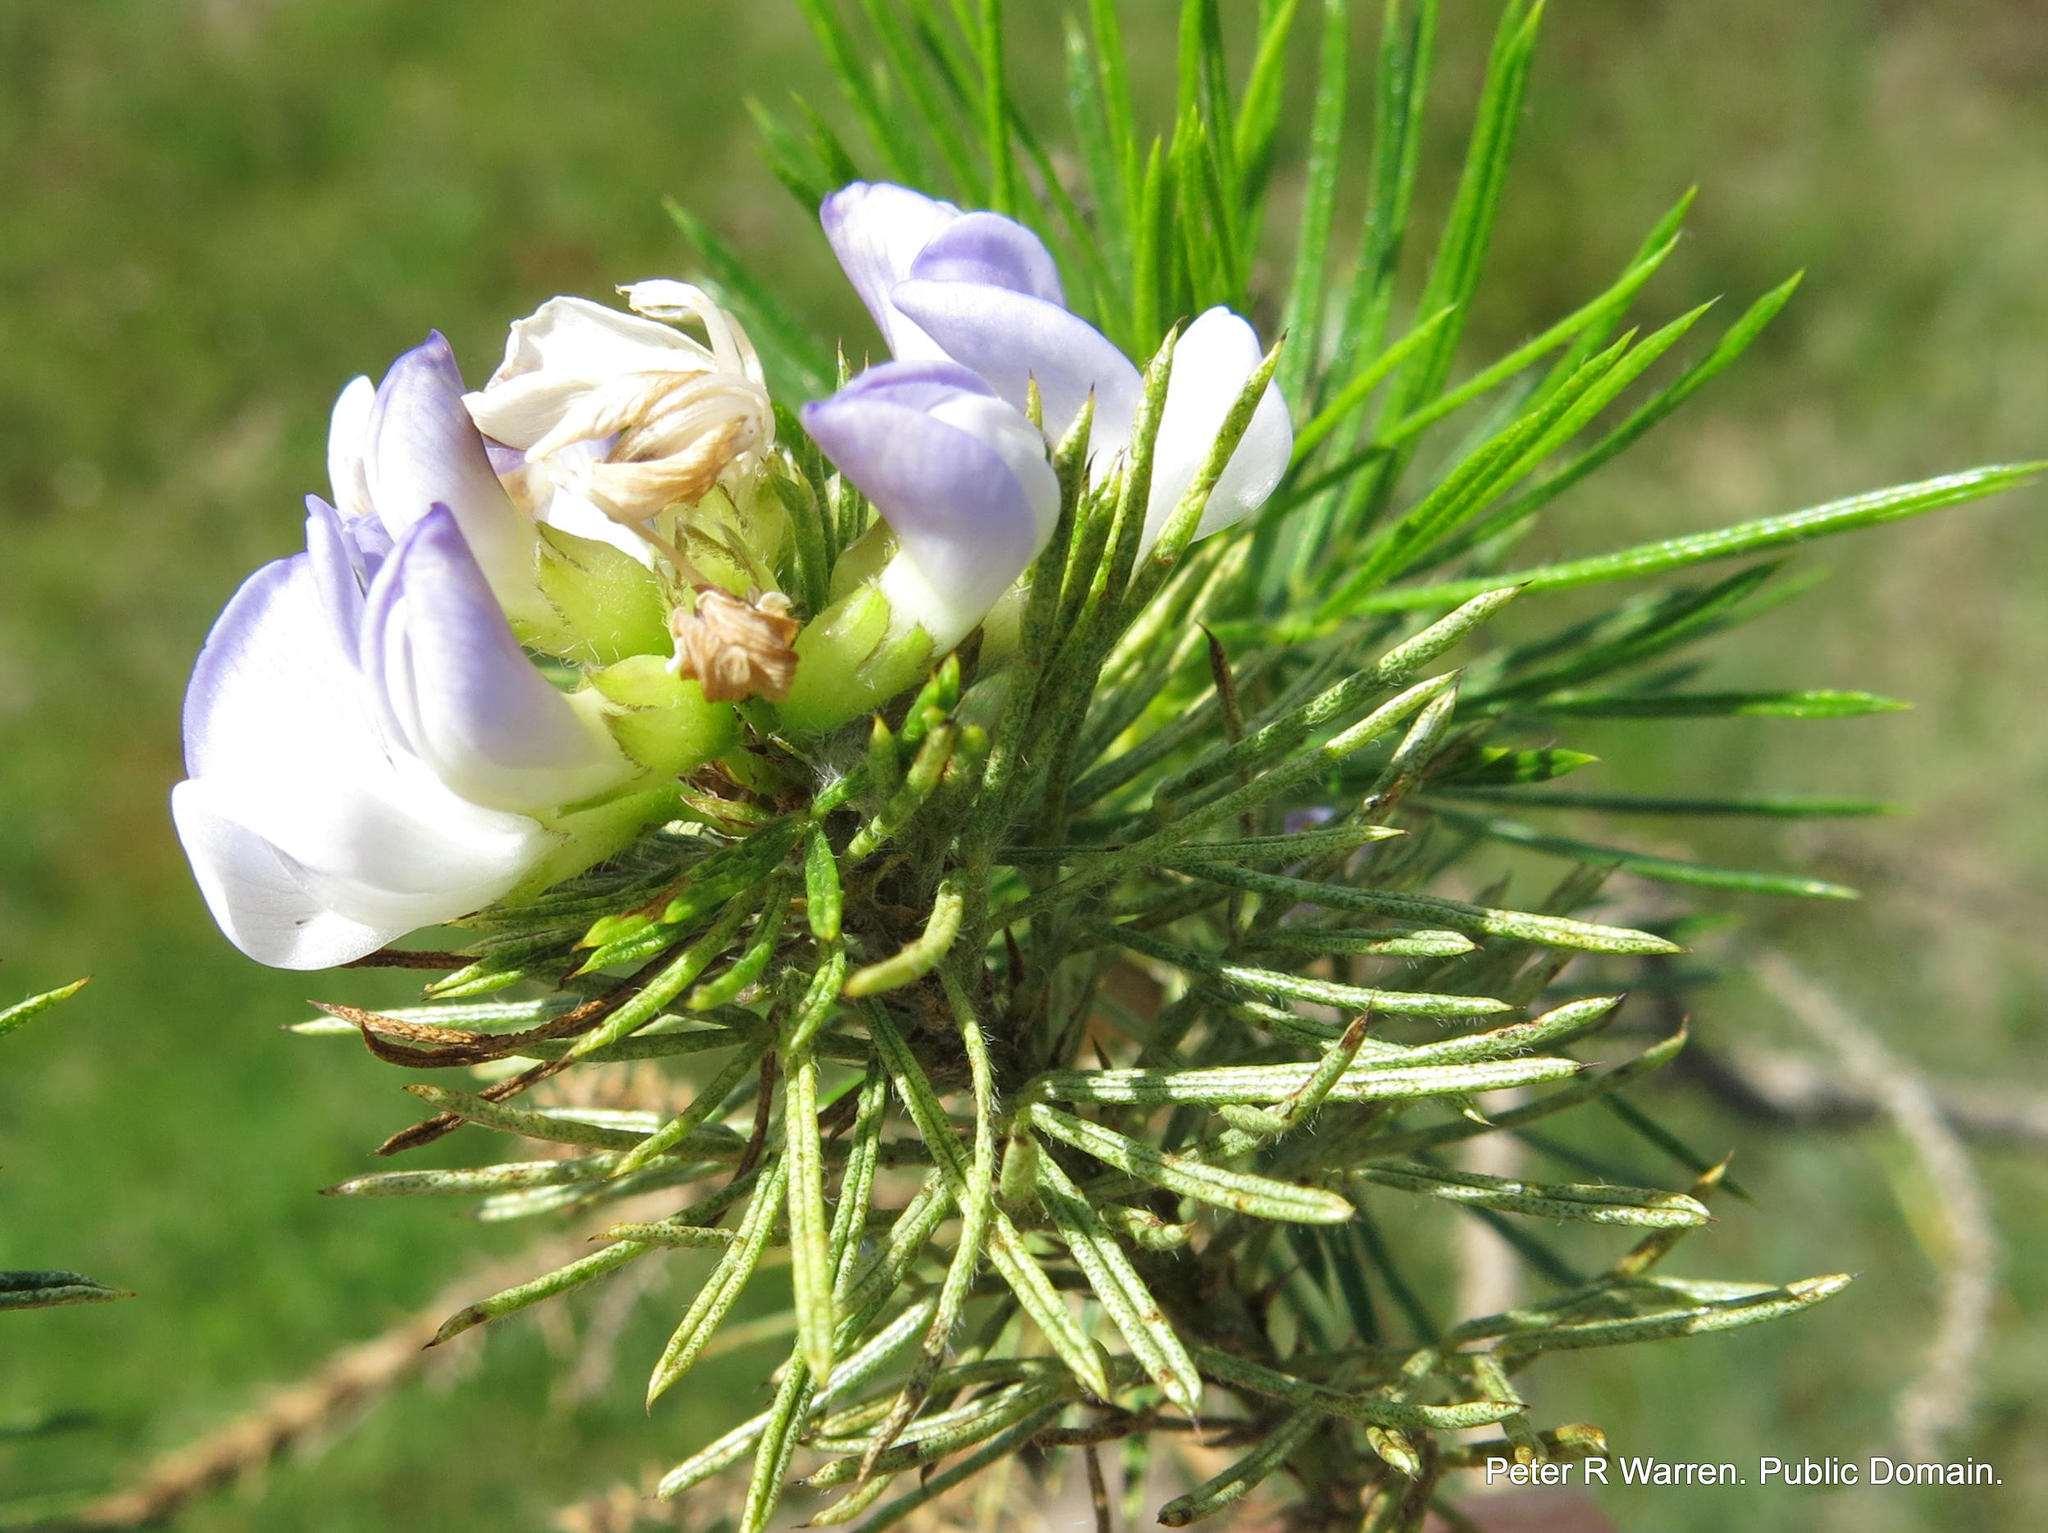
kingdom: Plantae
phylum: Tracheophyta
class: Magnoliopsida
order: Fabales
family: Fabaceae
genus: Psoralea
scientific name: Psoralea pinnata
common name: African scurfpea
